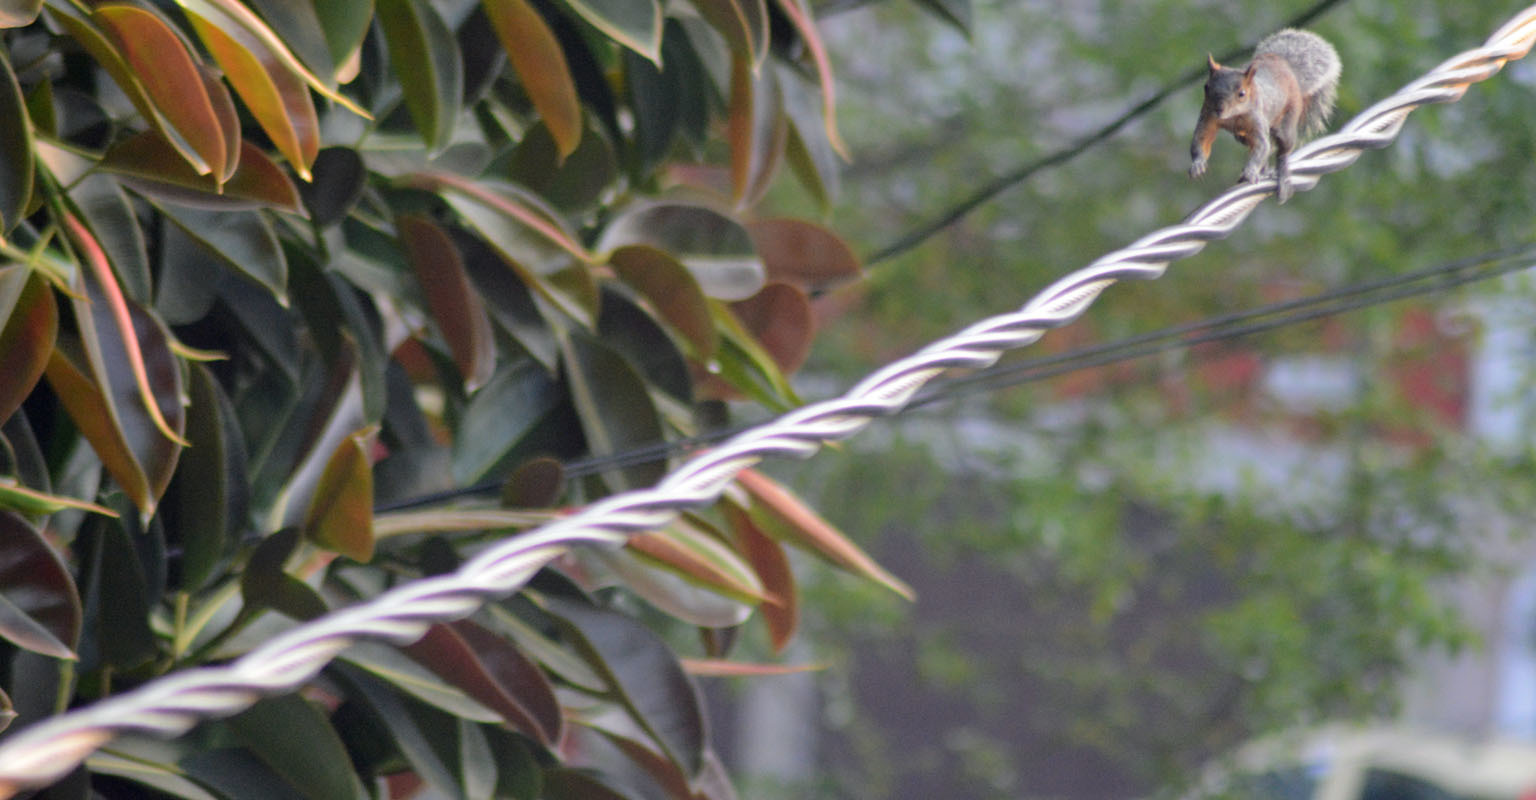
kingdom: Animalia
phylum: Chordata
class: Mammalia
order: Rodentia
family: Sciuridae
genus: Sciurus
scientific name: Sciurus aureogaster
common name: Red-bellied squirrel
